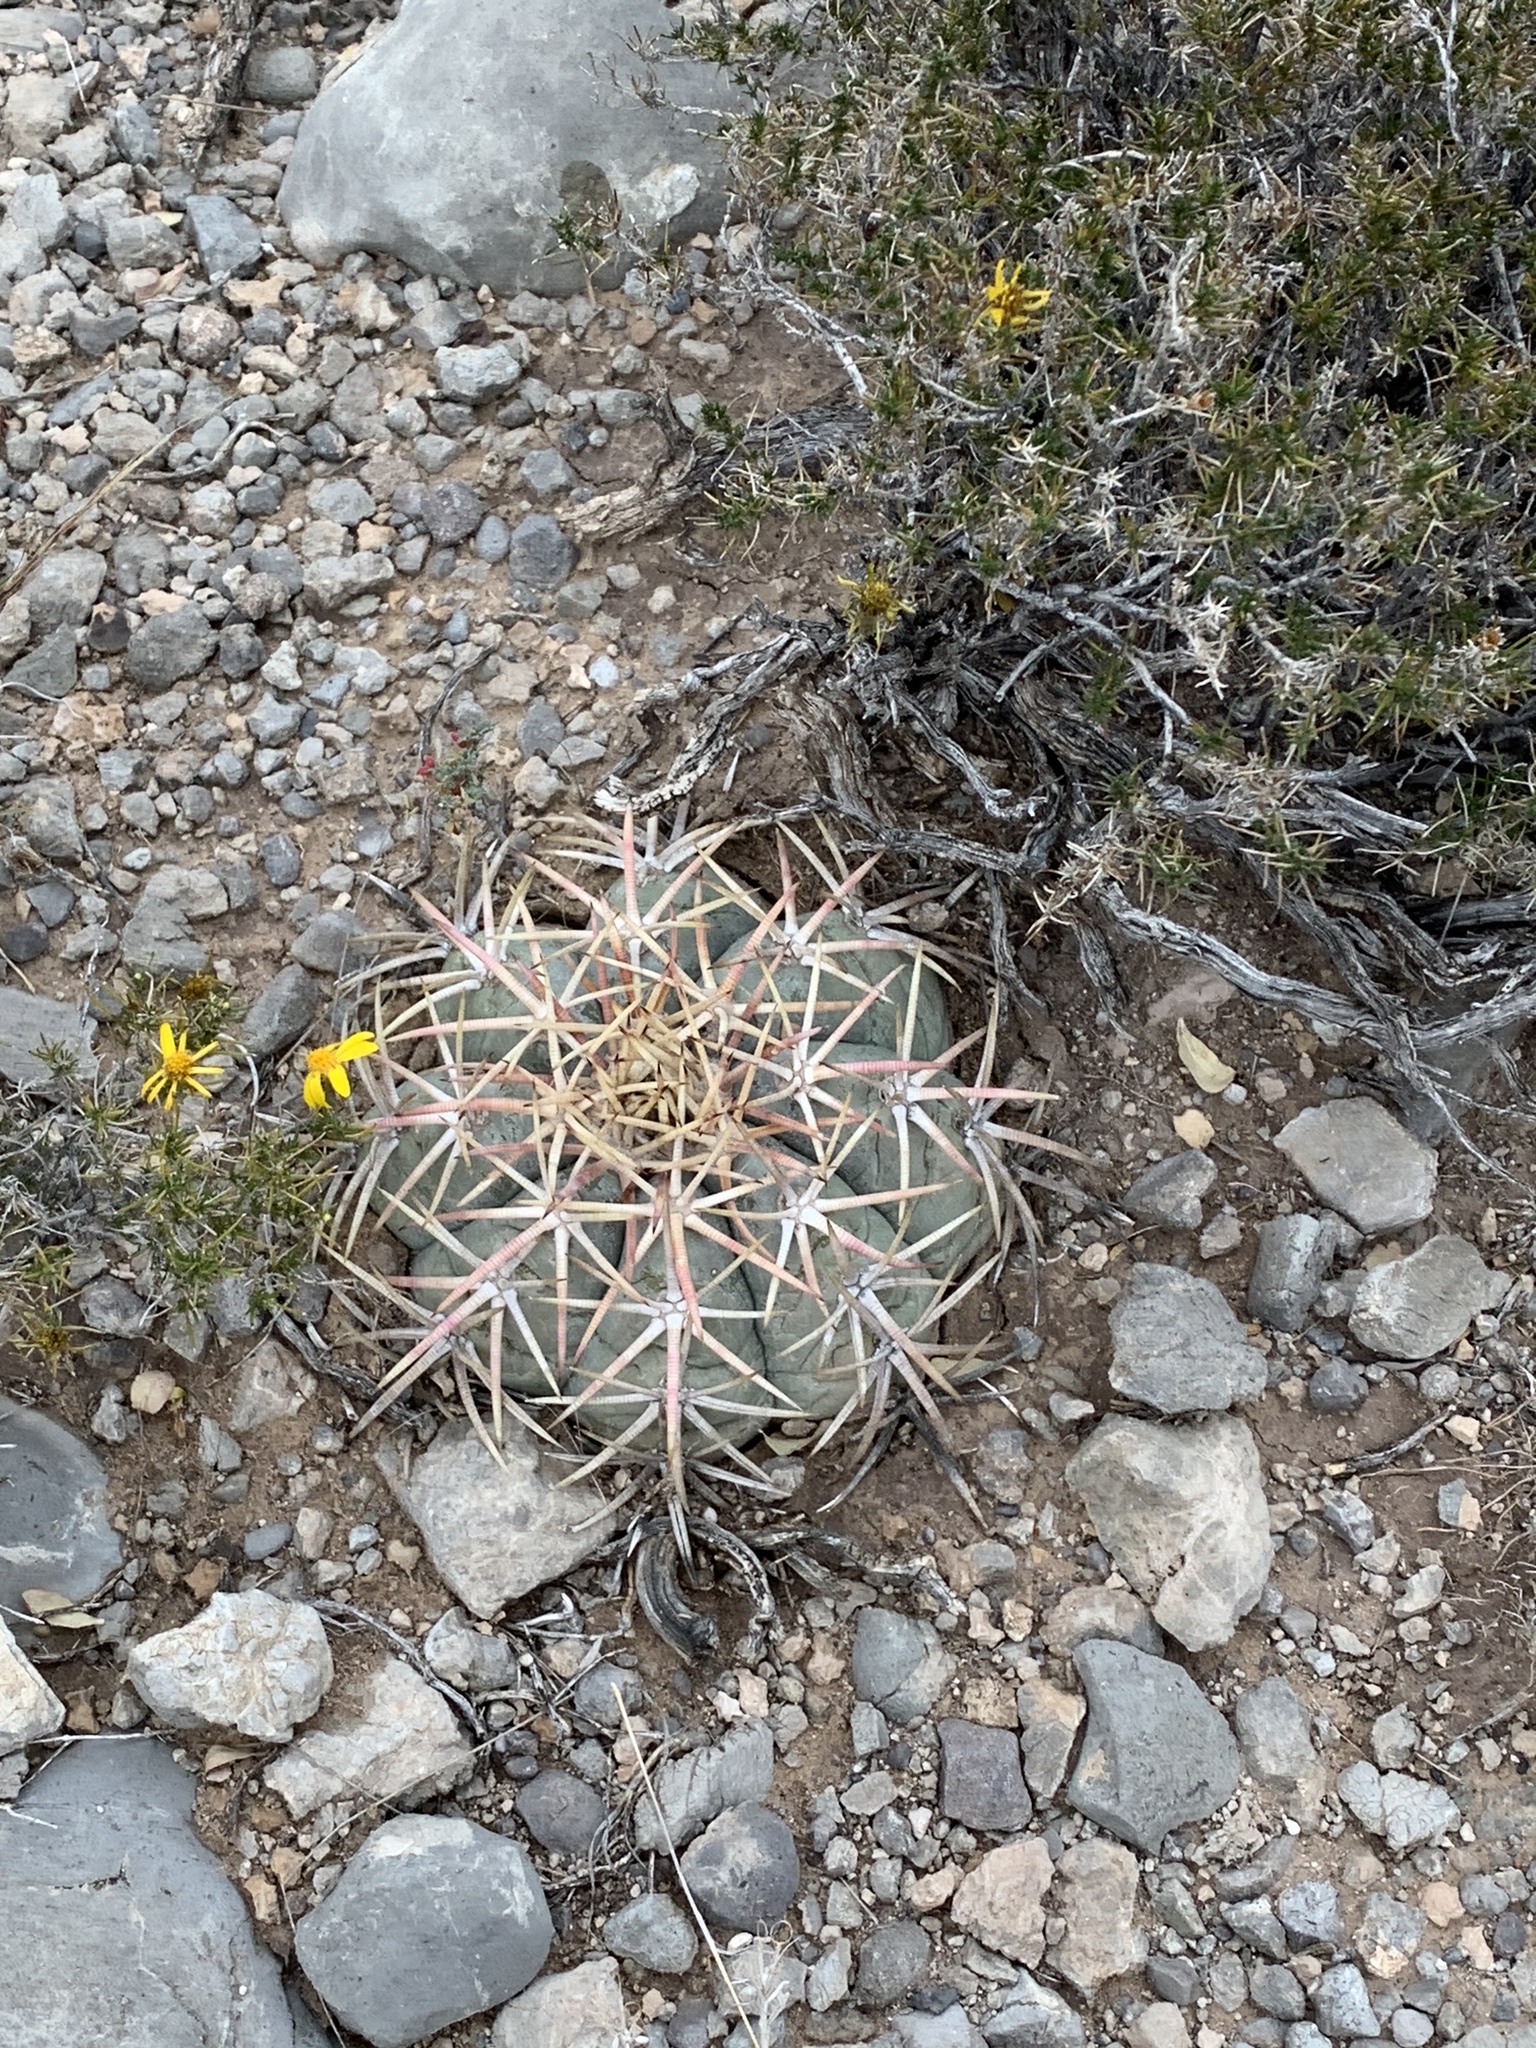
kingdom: Plantae
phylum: Tracheophyta
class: Magnoliopsida
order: Caryophyllales
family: Cactaceae
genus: Echinocactus
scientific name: Echinocactus horizonthalonius
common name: Devilshead
